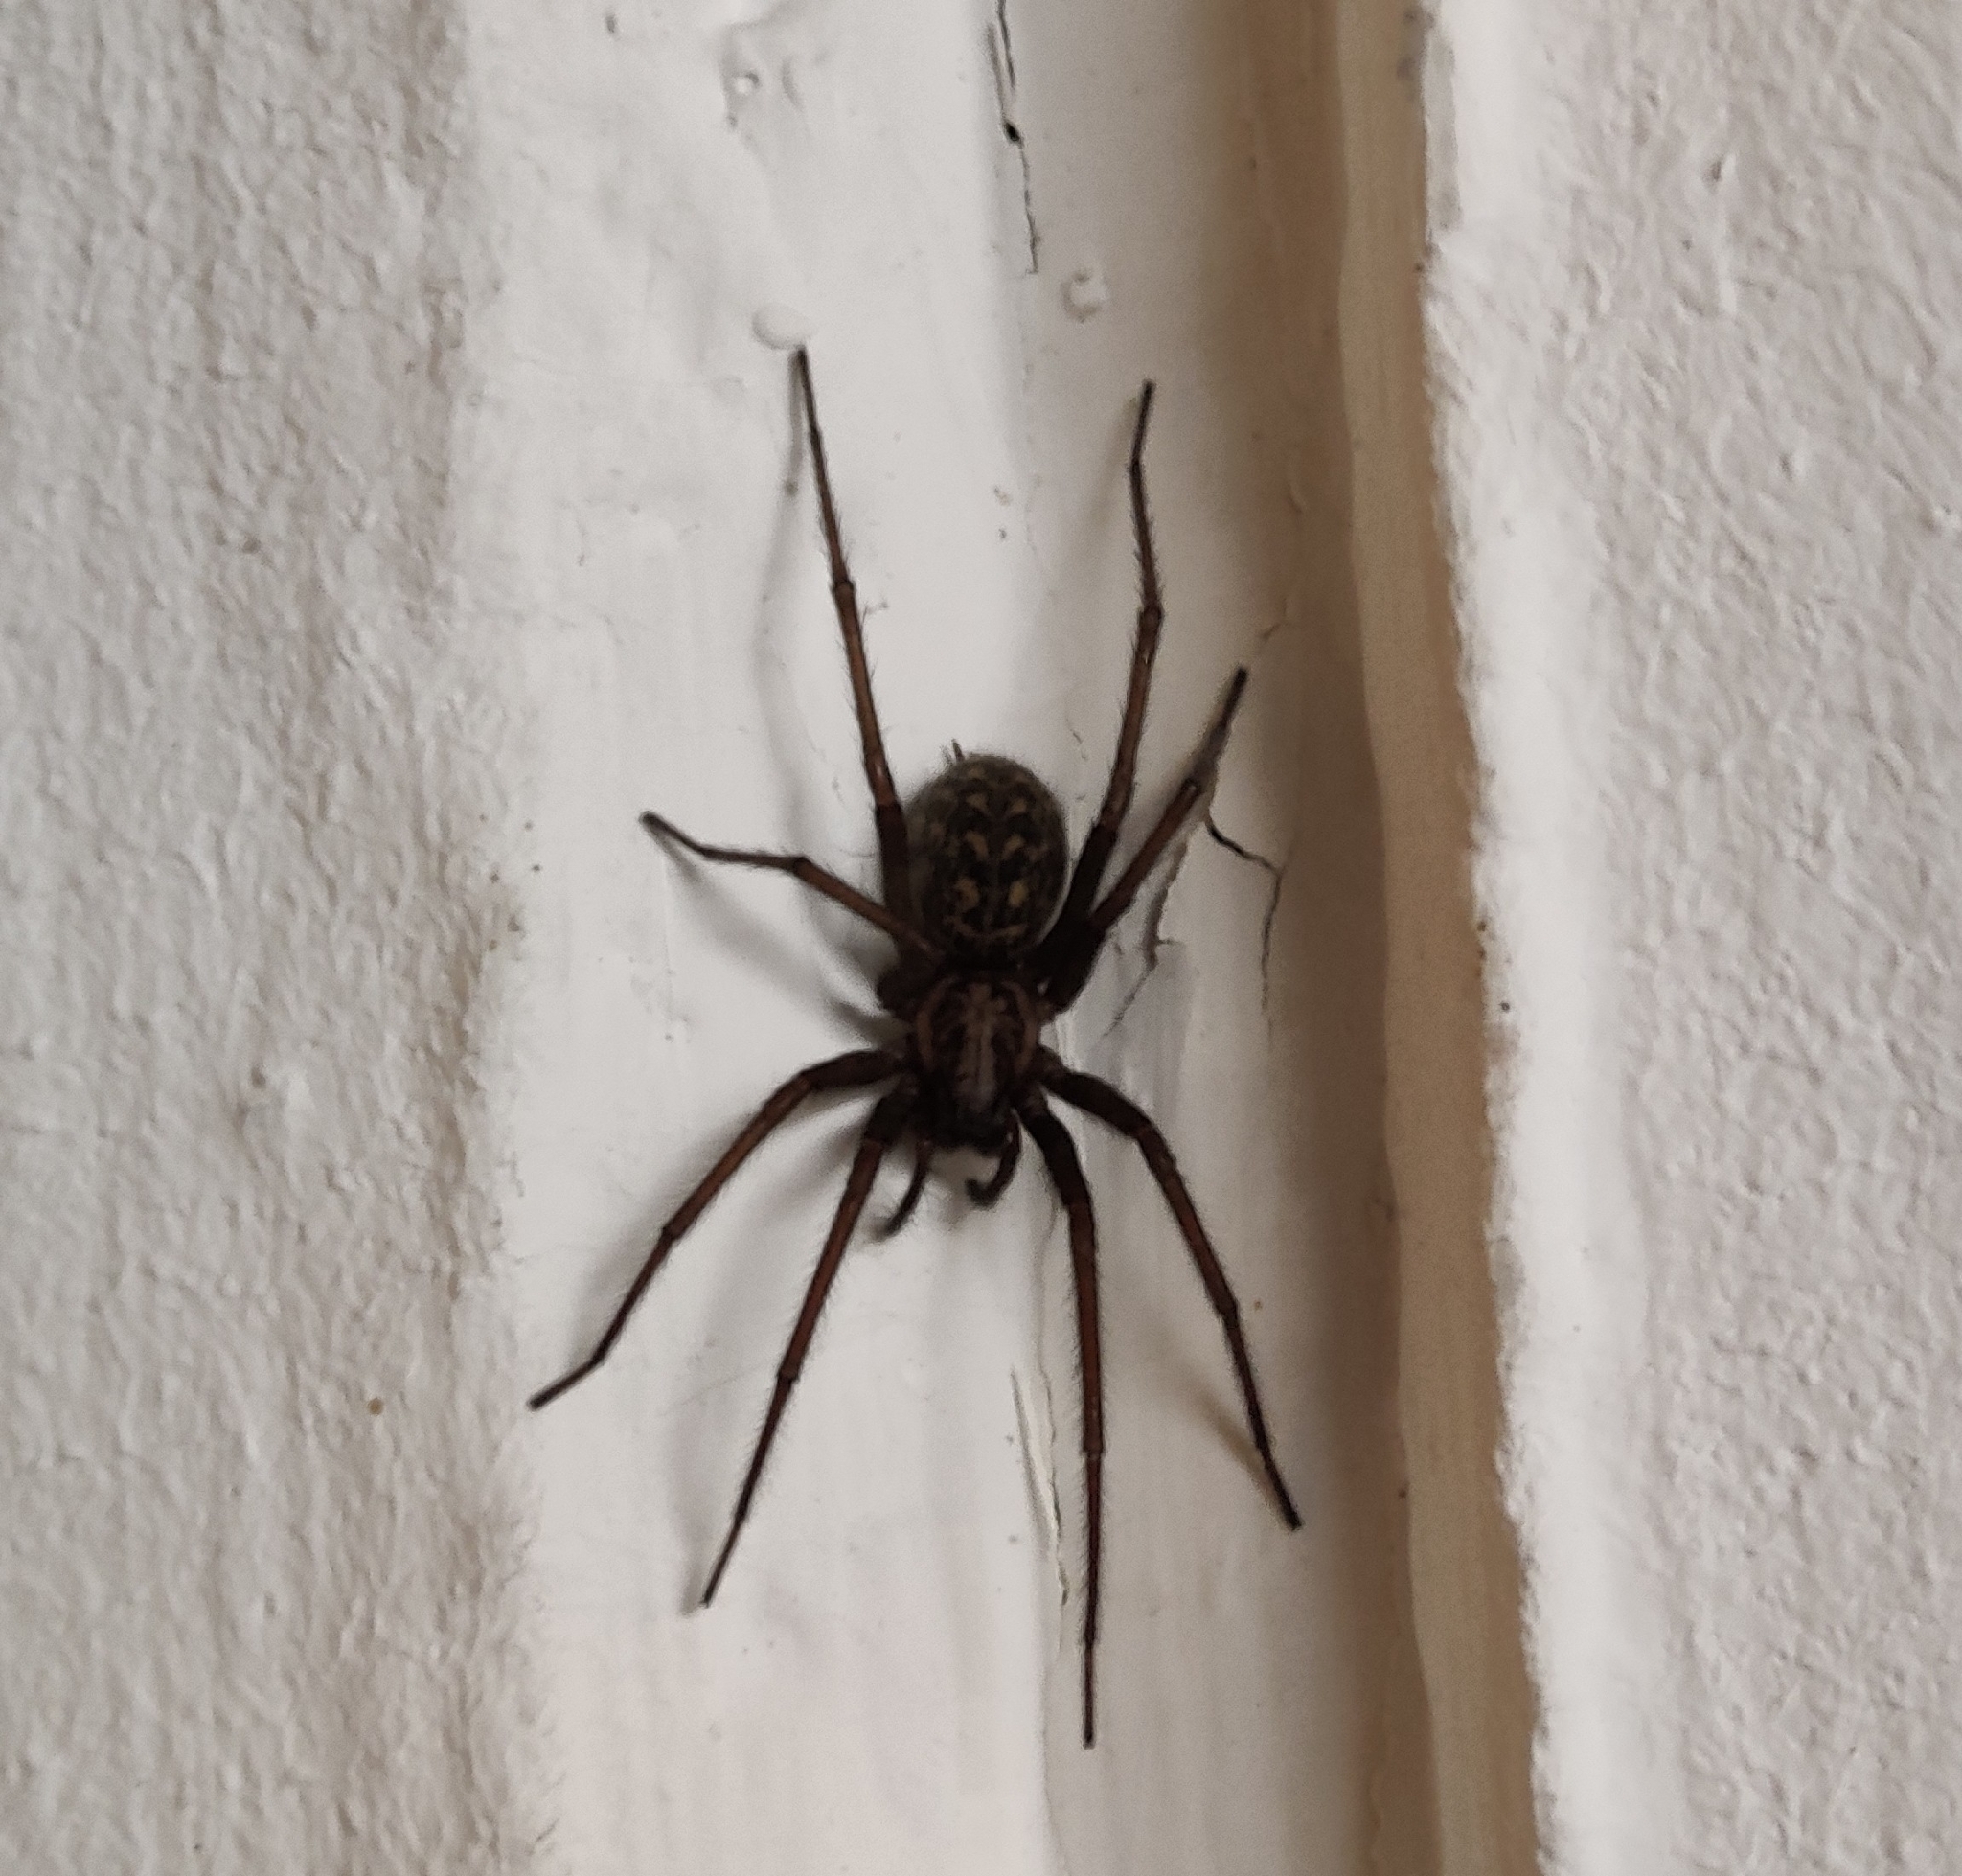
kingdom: Animalia
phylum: Arthropoda
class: Arachnida
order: Araneae
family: Agelenidae
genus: Eratigena
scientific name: Eratigena atrica
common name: Giant house spider
